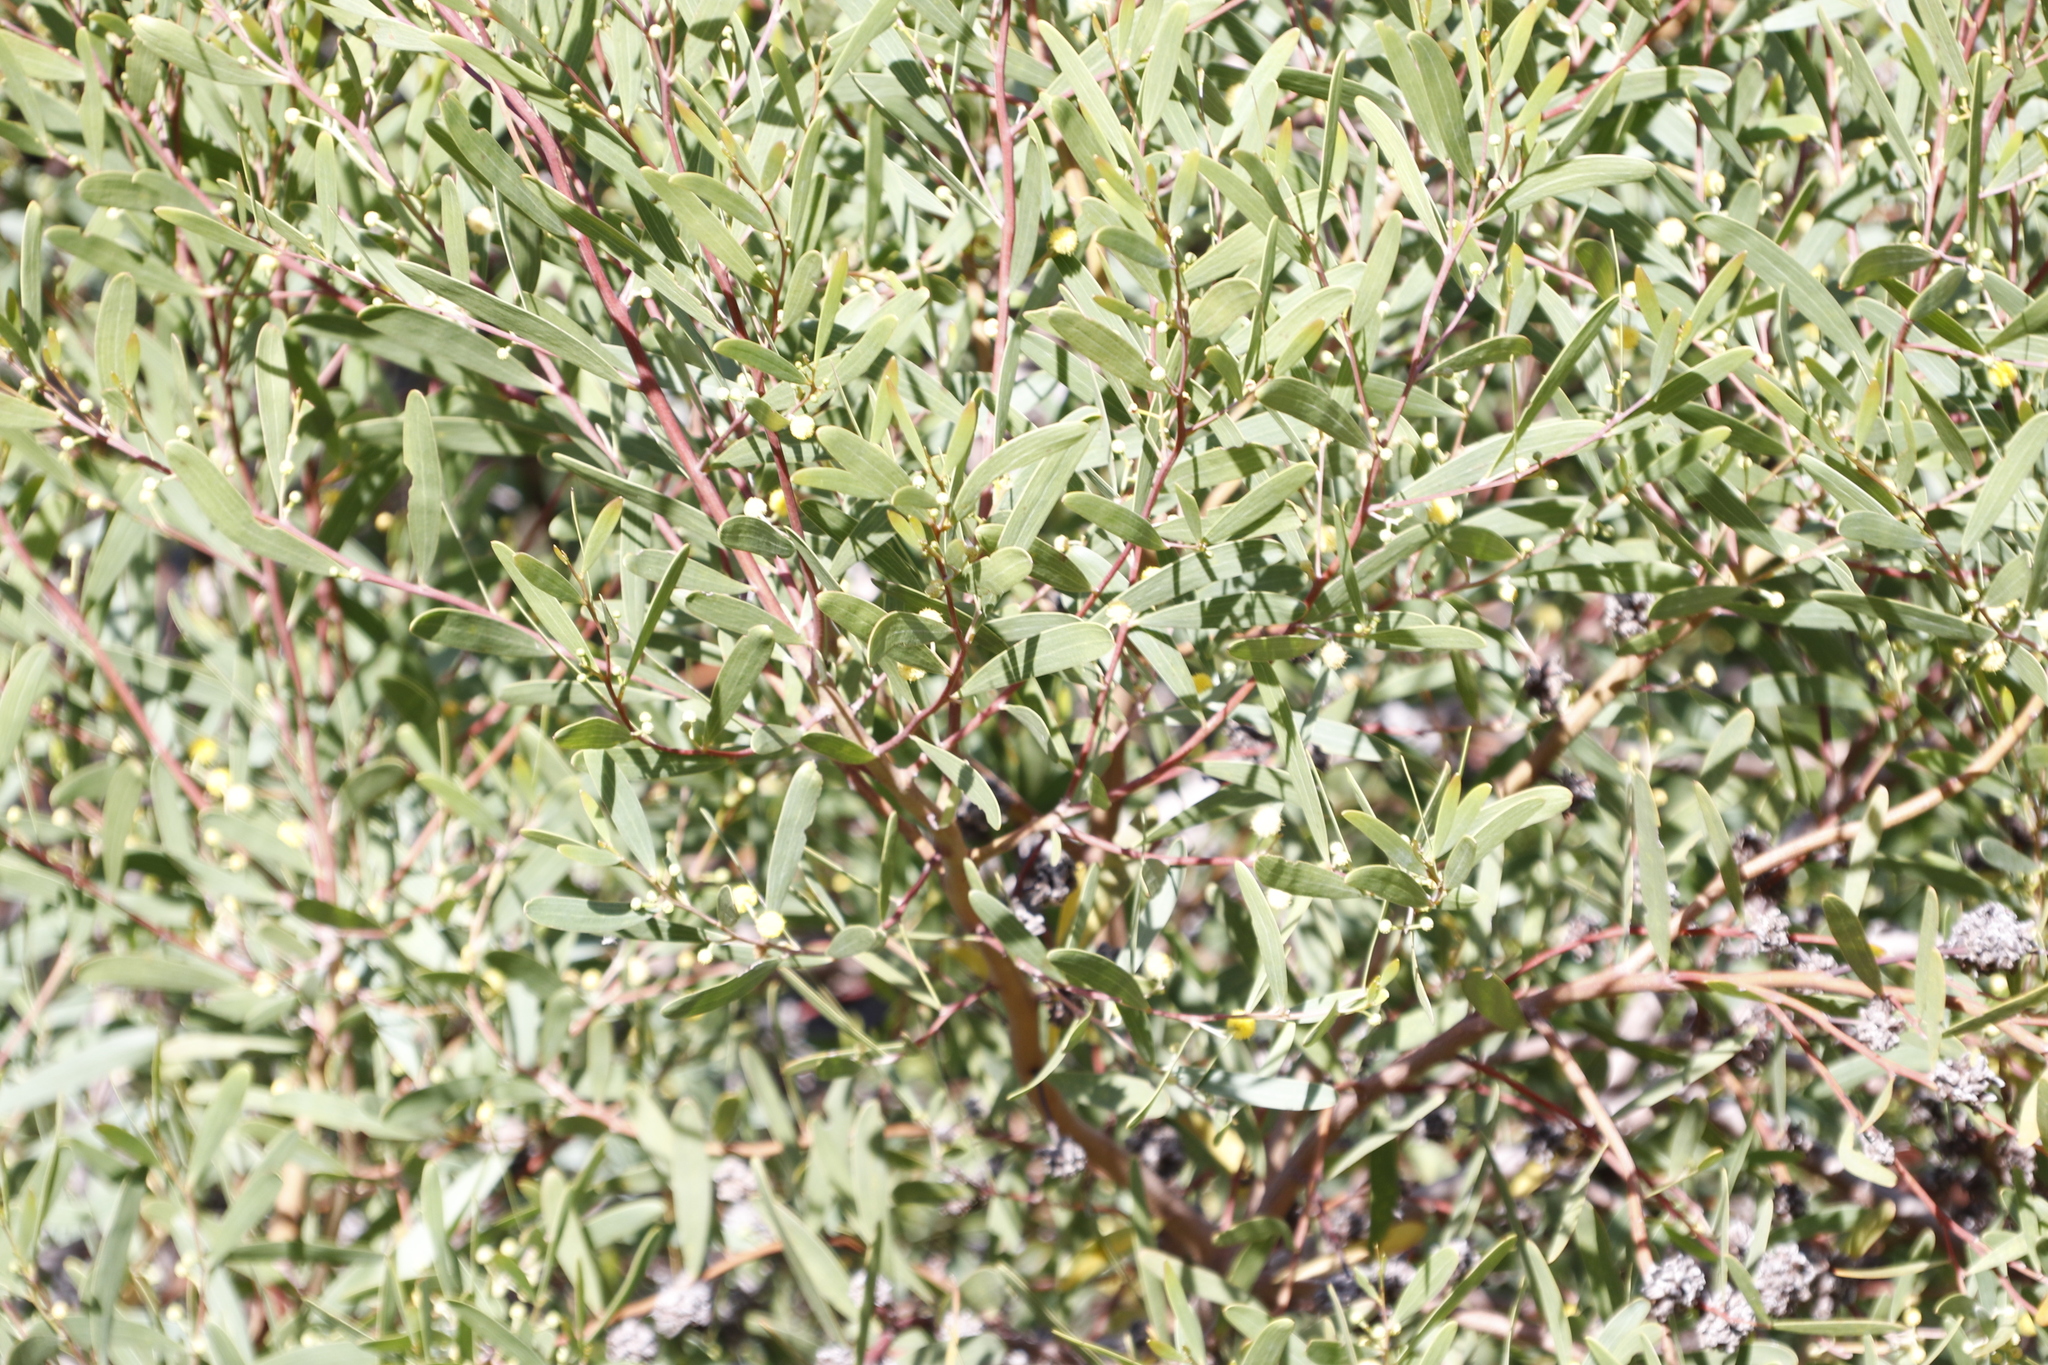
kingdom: Plantae
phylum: Tracheophyta
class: Magnoliopsida
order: Fabales
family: Fabaceae
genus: Acacia
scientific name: Acacia cyclops
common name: Coastal wattle
